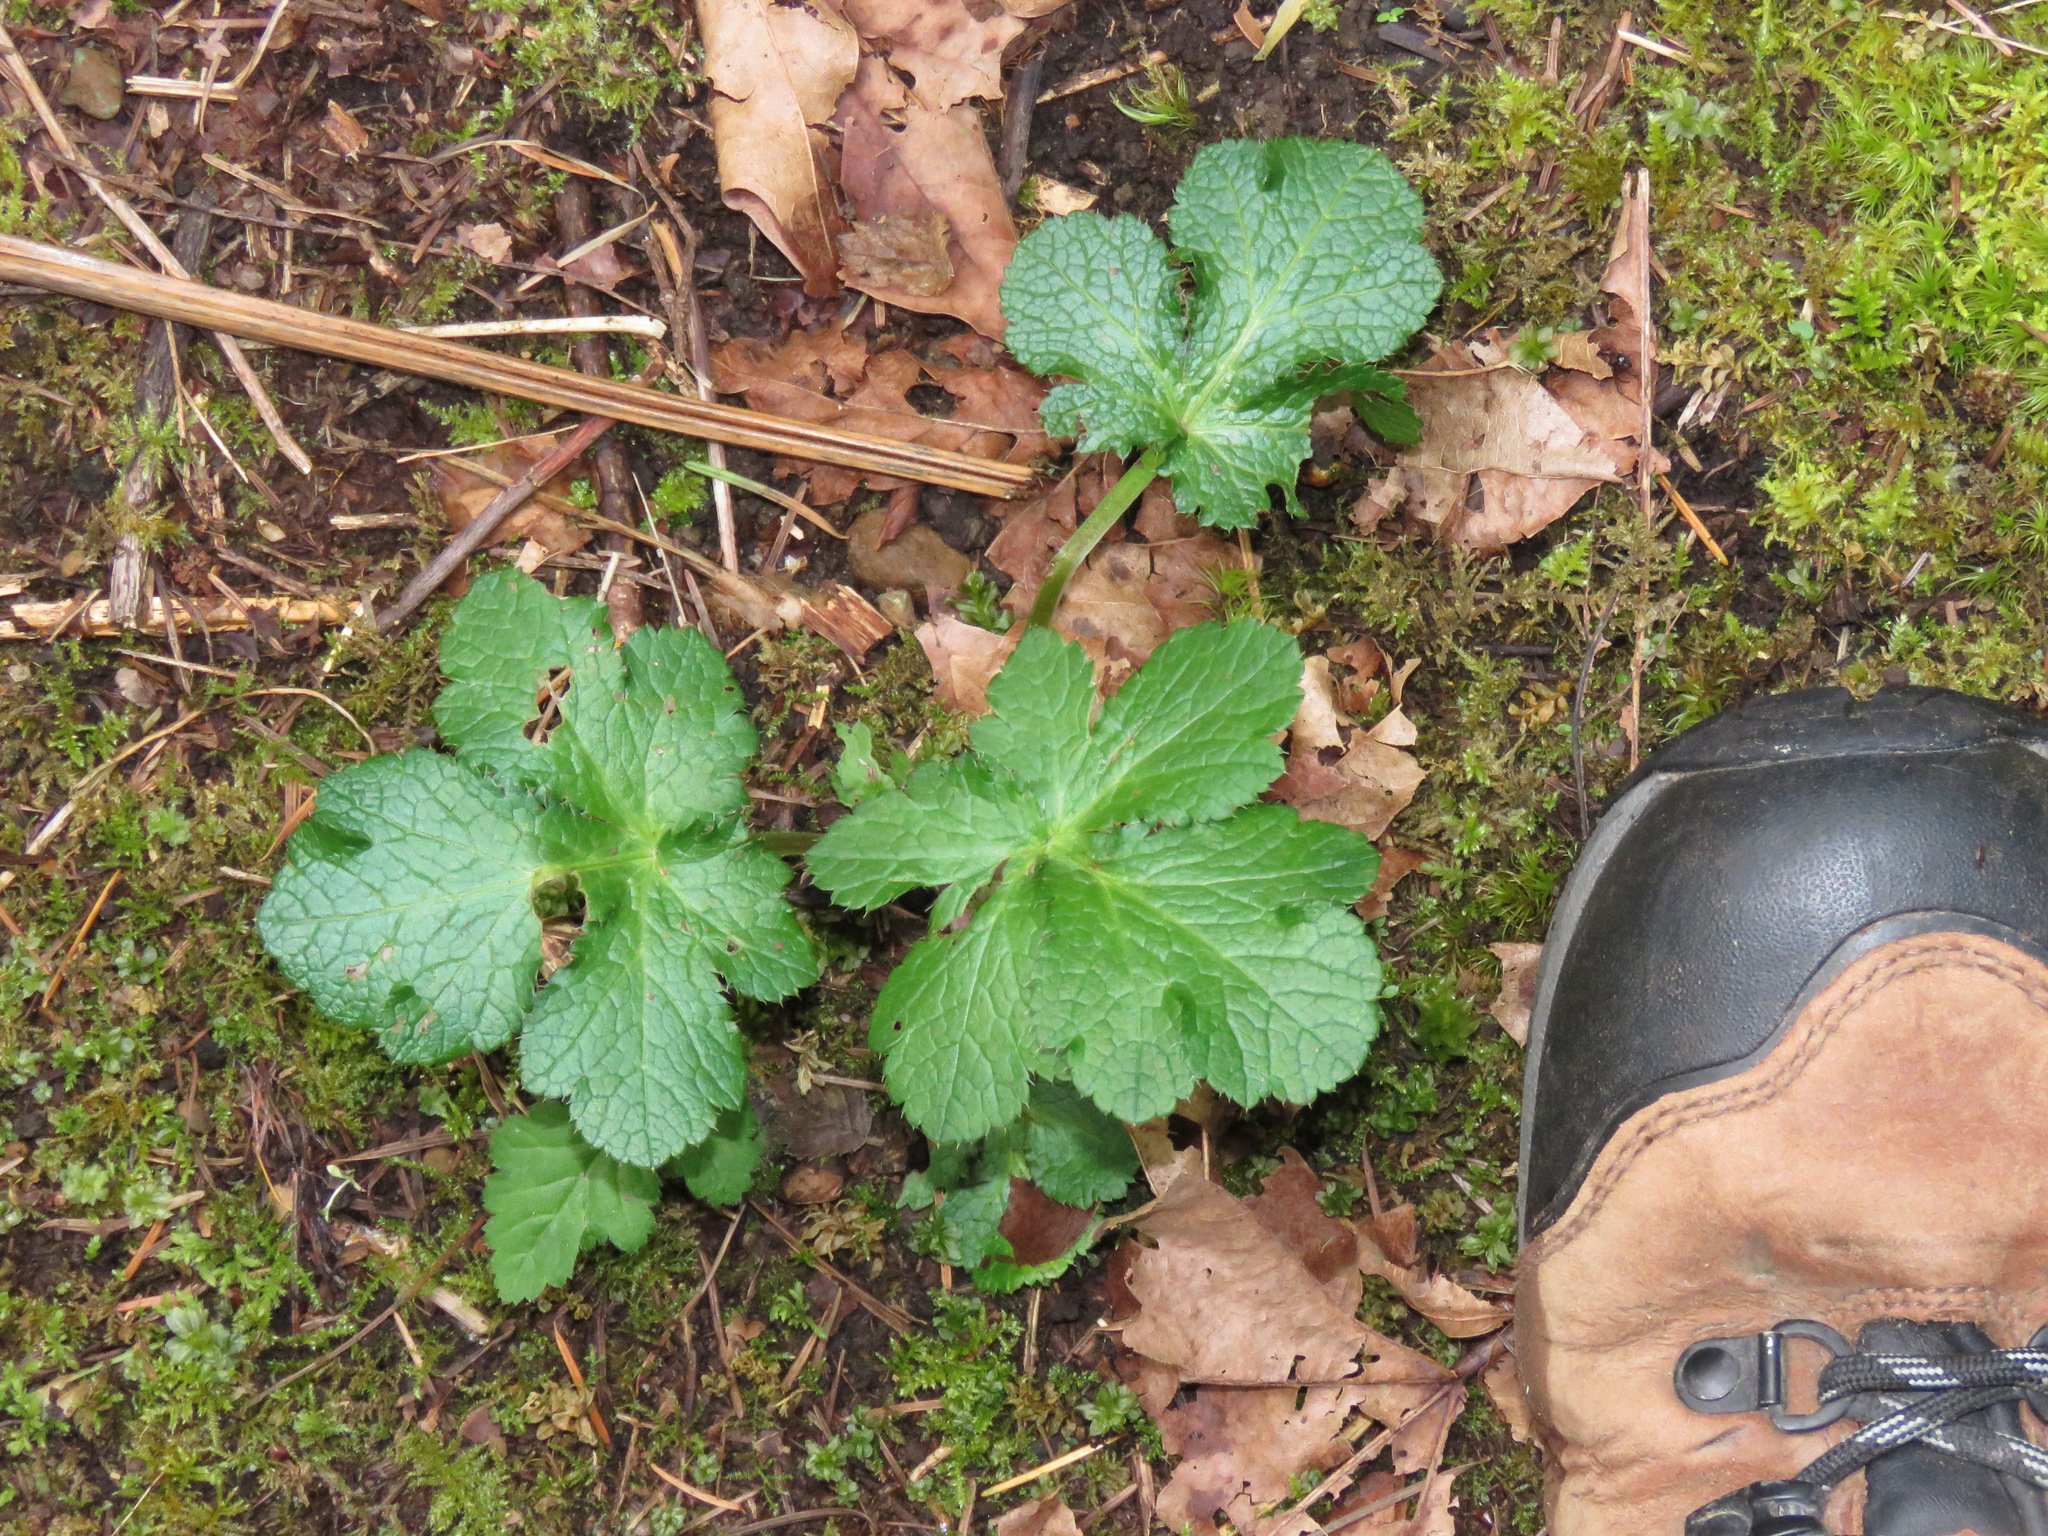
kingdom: Plantae
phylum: Tracheophyta
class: Magnoliopsida
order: Apiales
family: Apiaceae
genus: Sanicula
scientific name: Sanicula crassicaulis
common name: Western snakeroot
